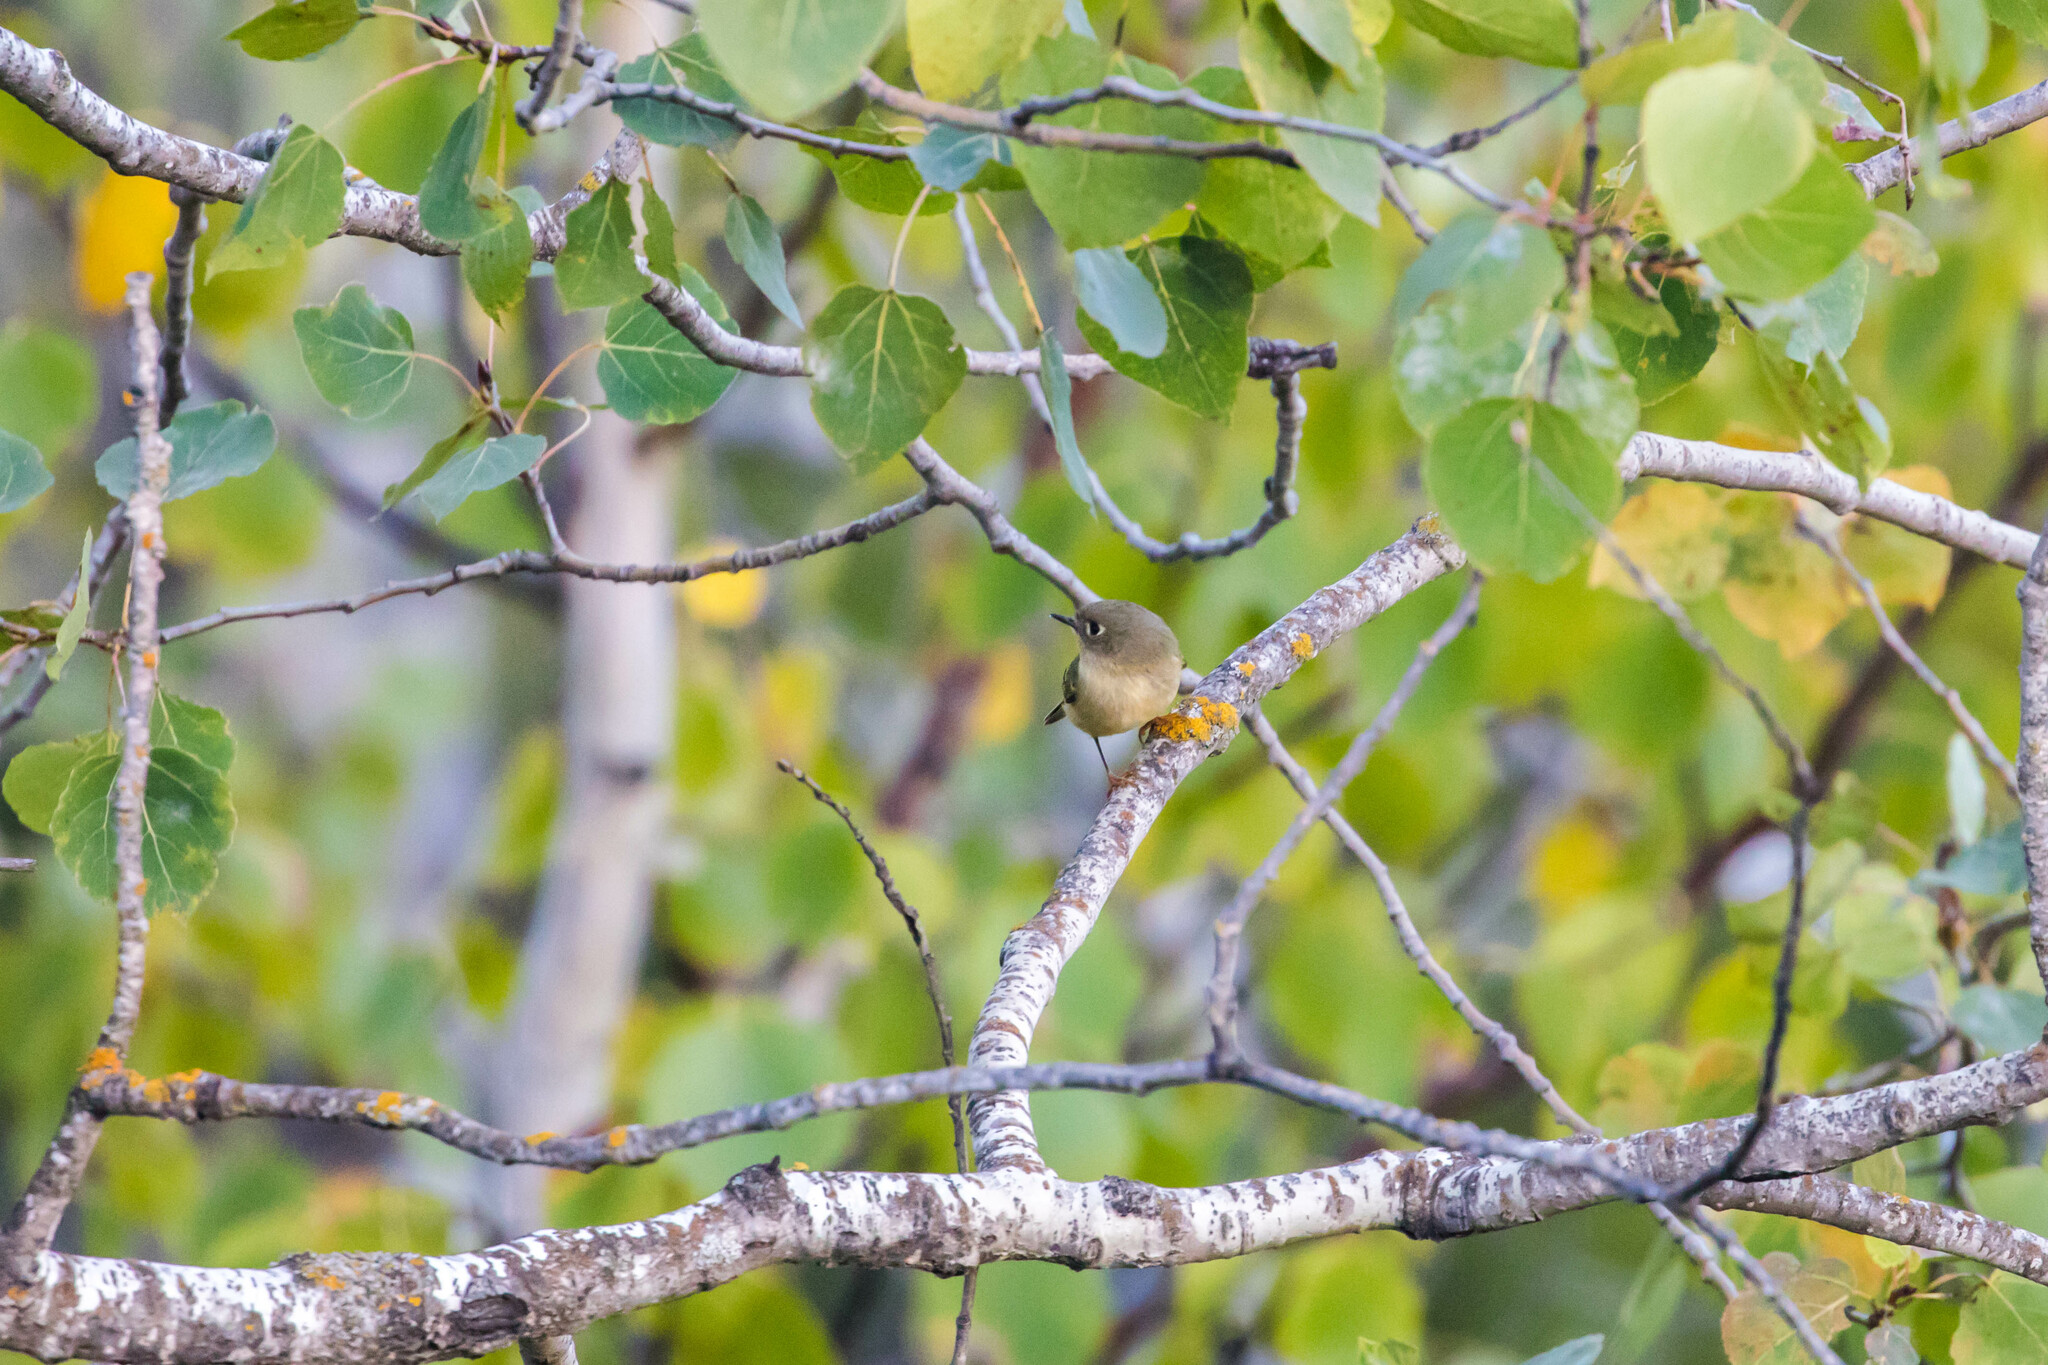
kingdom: Animalia
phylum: Chordata
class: Aves
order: Passeriformes
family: Regulidae
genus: Regulus
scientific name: Regulus calendula
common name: Ruby-crowned kinglet
